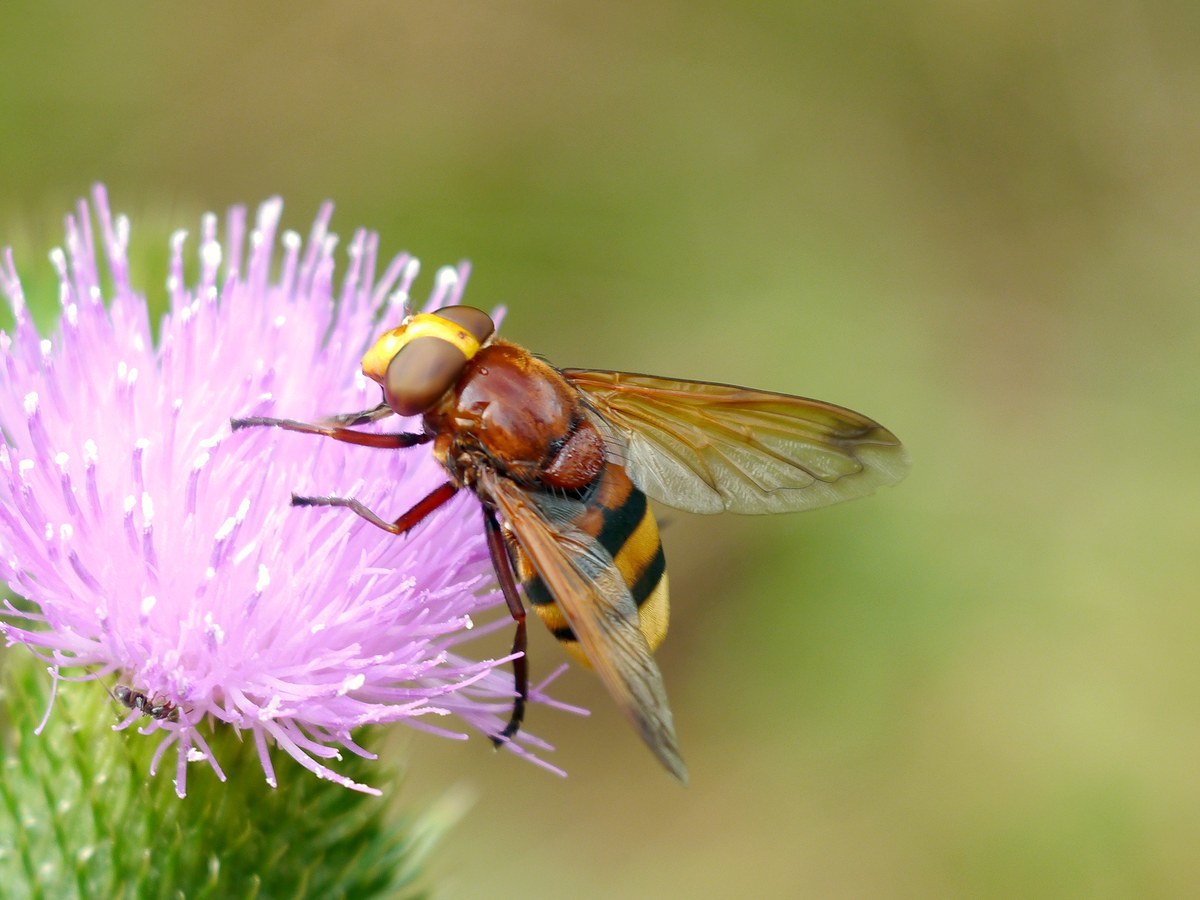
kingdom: Animalia
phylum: Arthropoda
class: Insecta
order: Diptera
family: Syrphidae
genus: Volucella
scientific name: Volucella zonaria
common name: Hornet hoverfly
